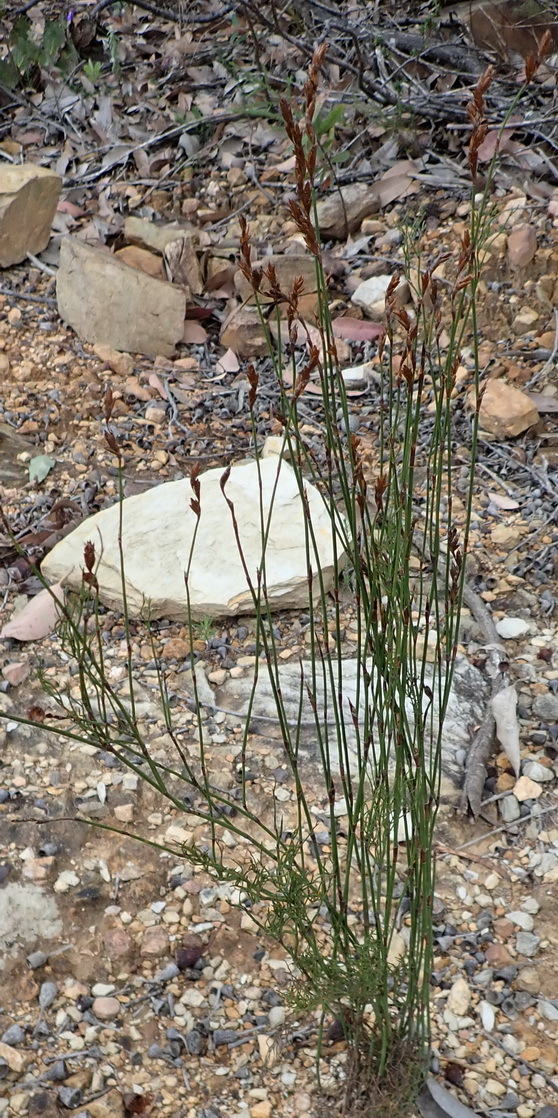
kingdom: Plantae
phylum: Tracheophyta
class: Liliopsida
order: Poales
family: Restionaceae
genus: Restio
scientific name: Restio triticeus
